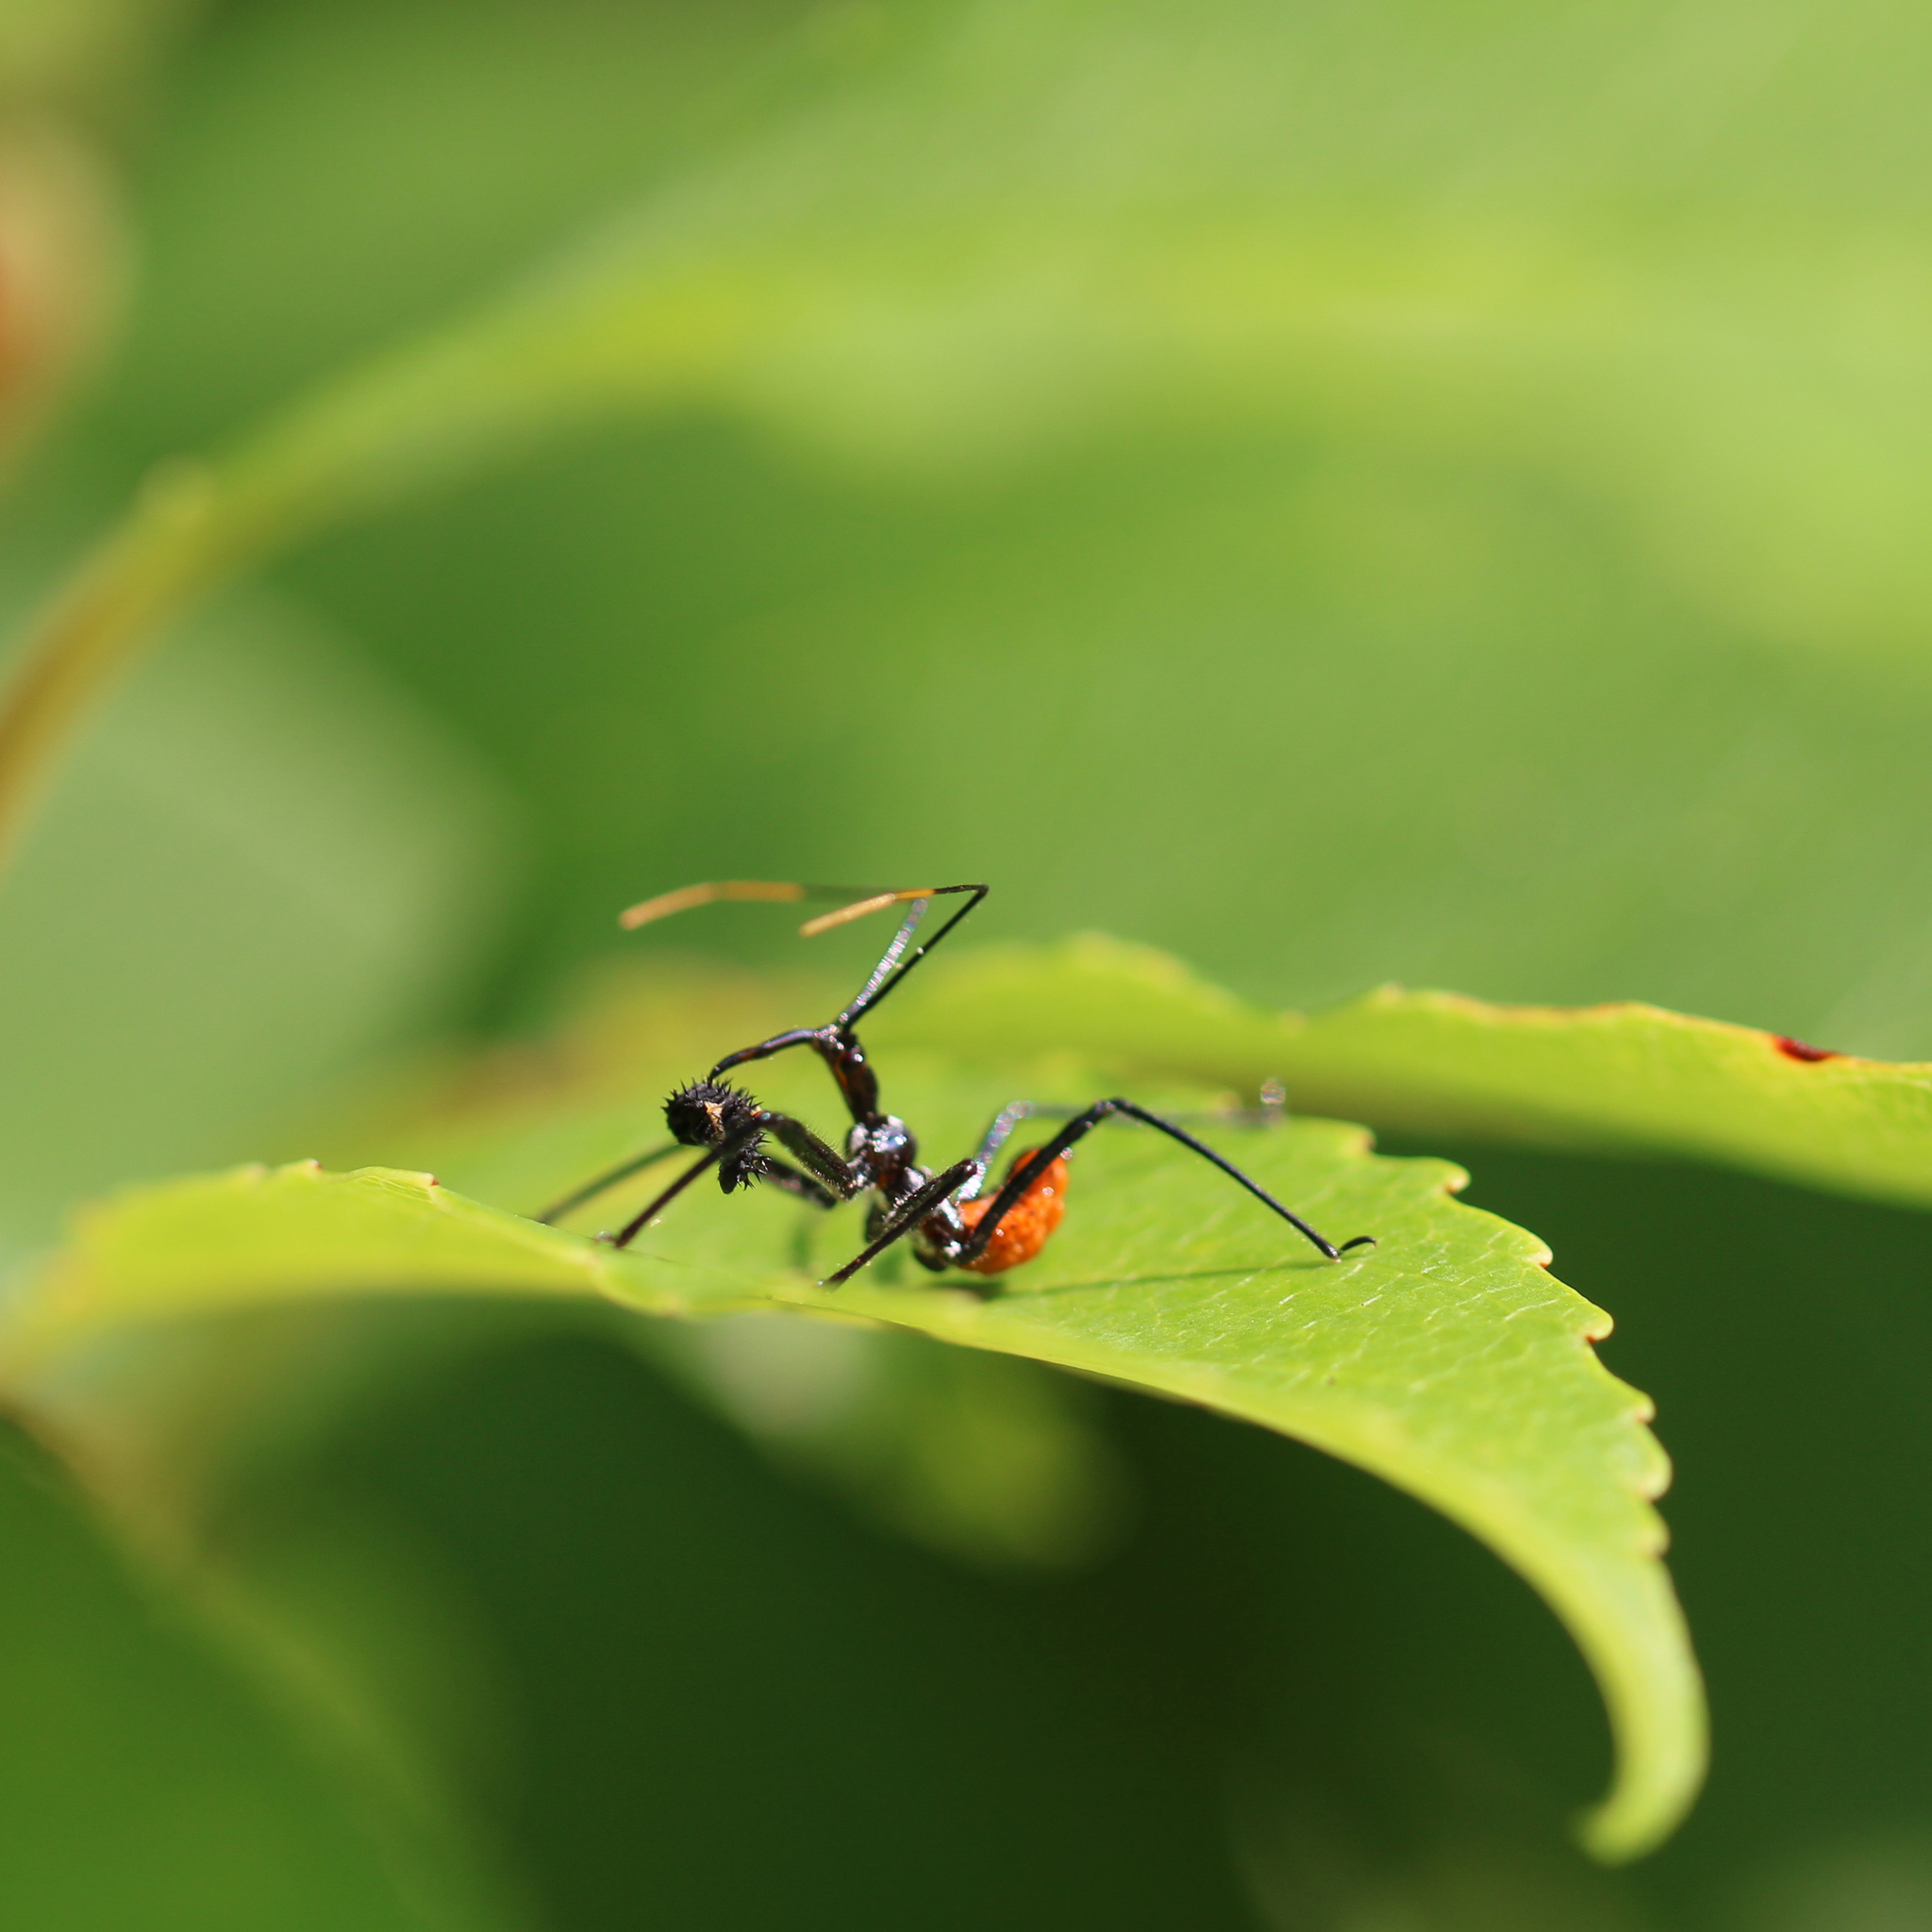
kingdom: Animalia
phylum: Arthropoda
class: Insecta
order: Hemiptera
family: Reduviidae
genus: Arilus
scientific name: Arilus cristatus
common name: North american wheel bug
